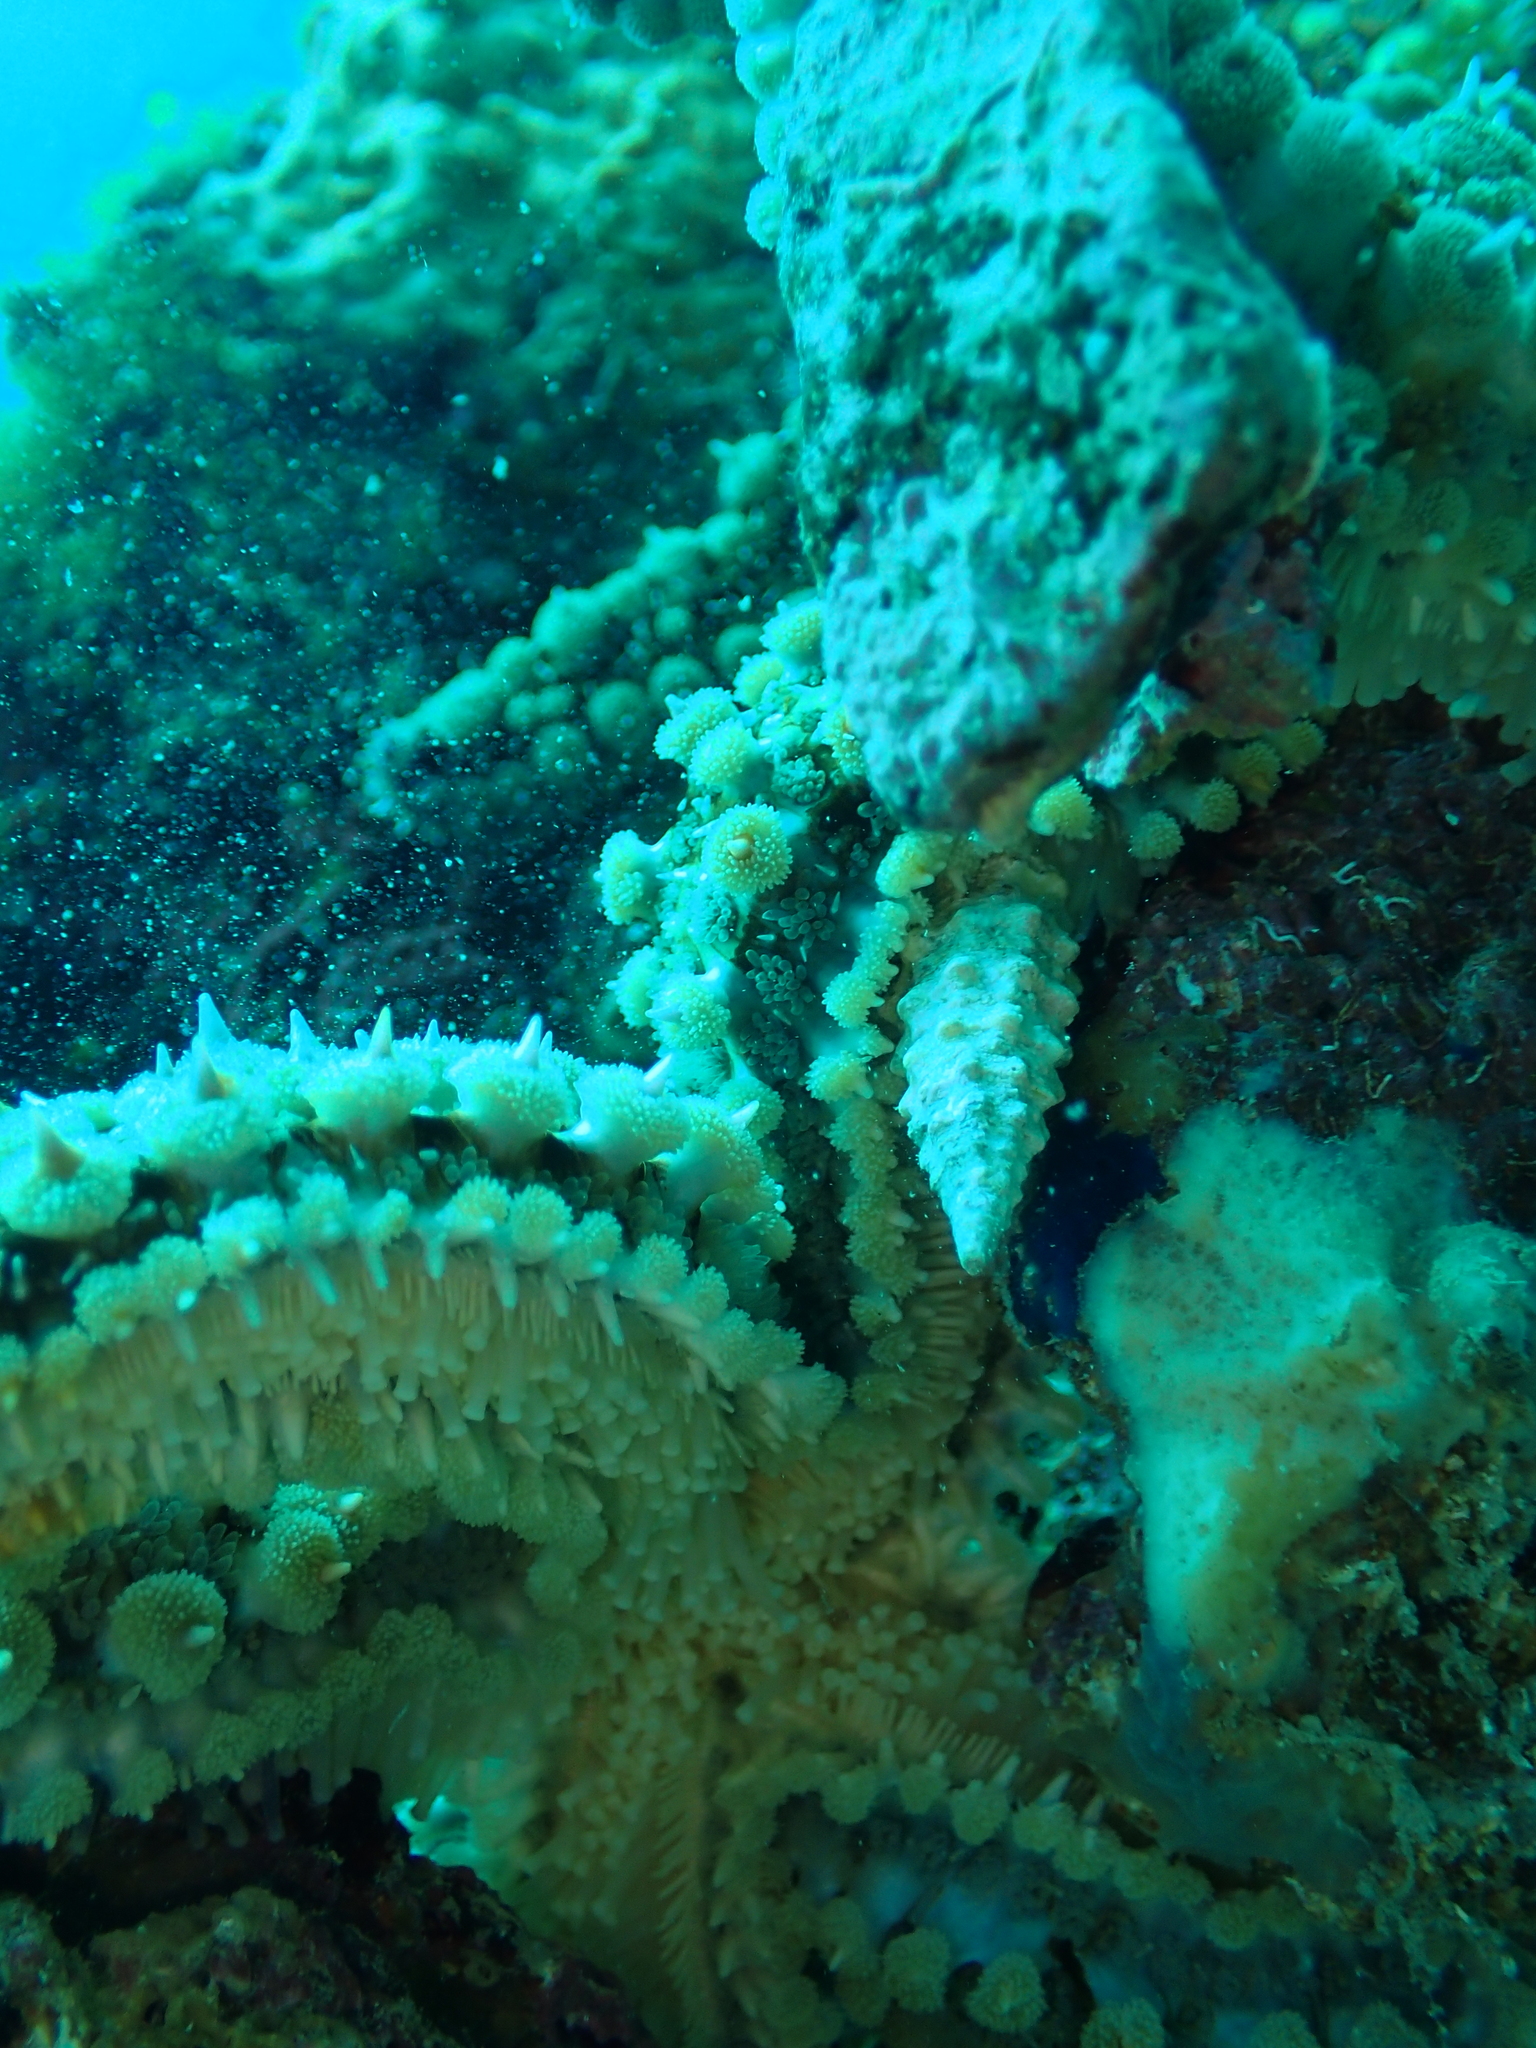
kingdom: Animalia
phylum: Echinodermata
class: Asteroidea
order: Forcipulatida
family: Asteriidae
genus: Marthasterias
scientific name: Marthasterias glacialis
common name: Spiny starfish
